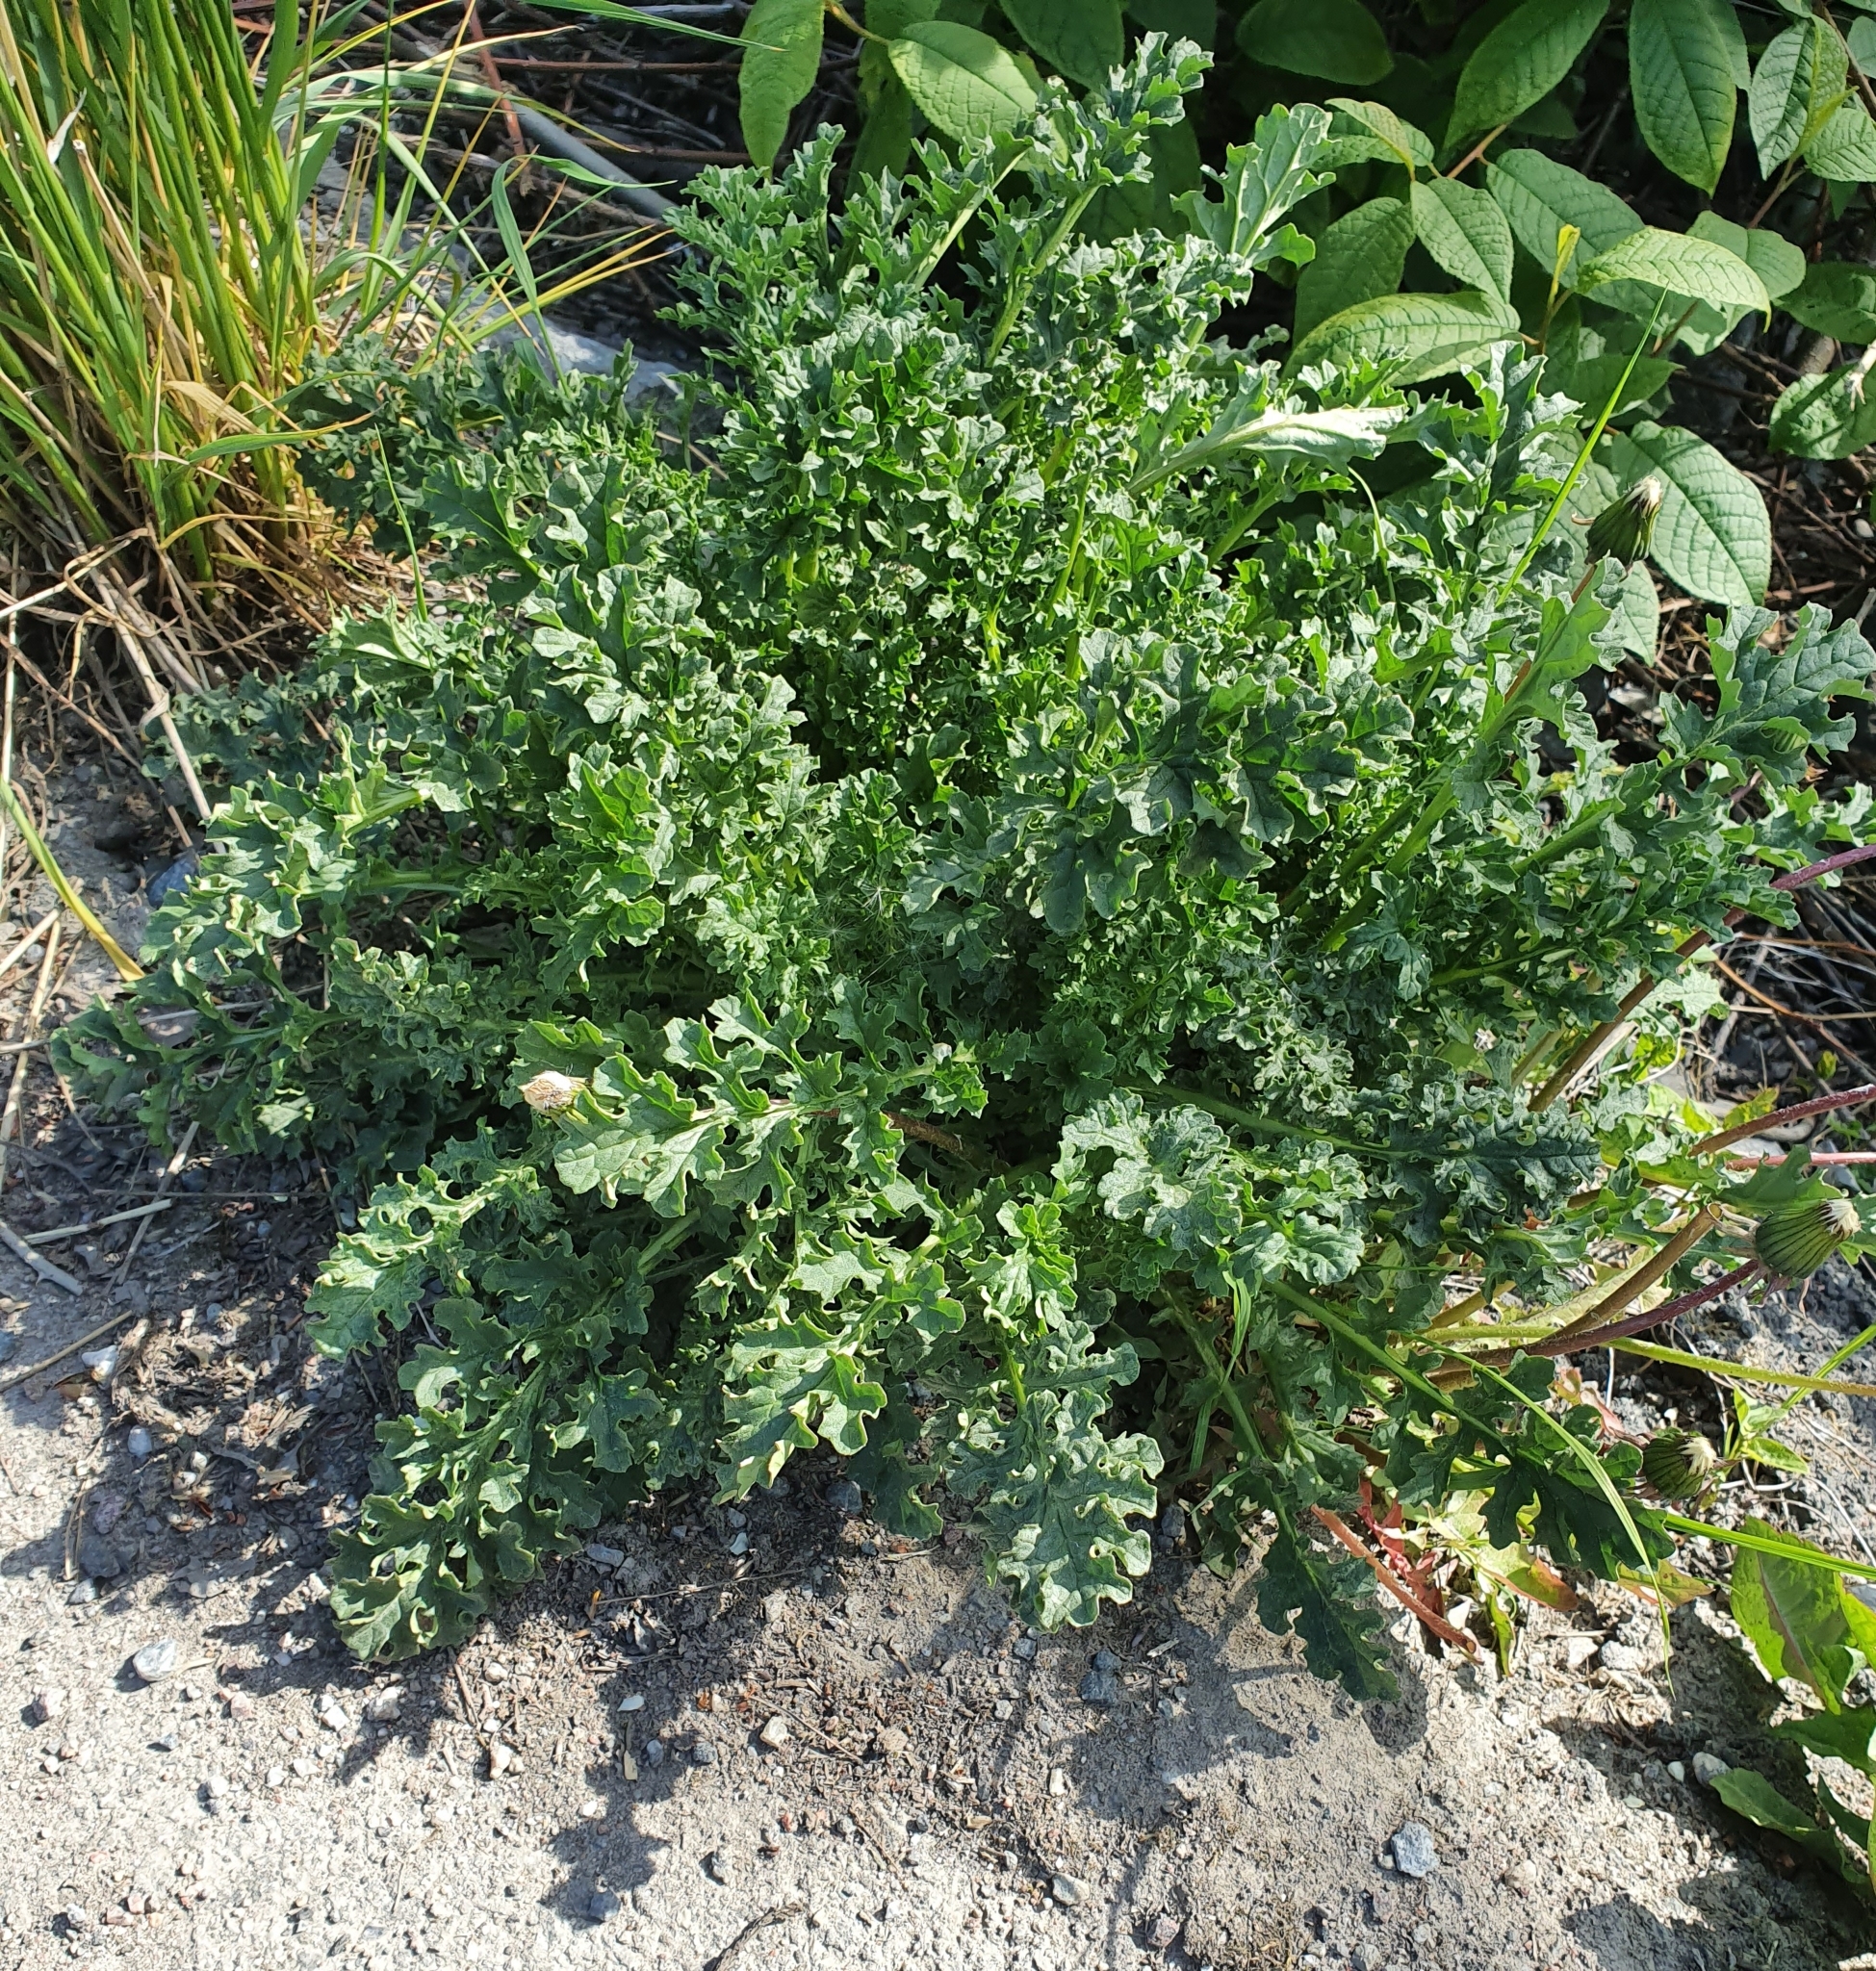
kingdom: Plantae
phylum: Tracheophyta
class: Magnoliopsida
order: Asterales
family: Asteraceae
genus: Jacobaea
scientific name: Jacobaea vulgaris
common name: Stinking willie
